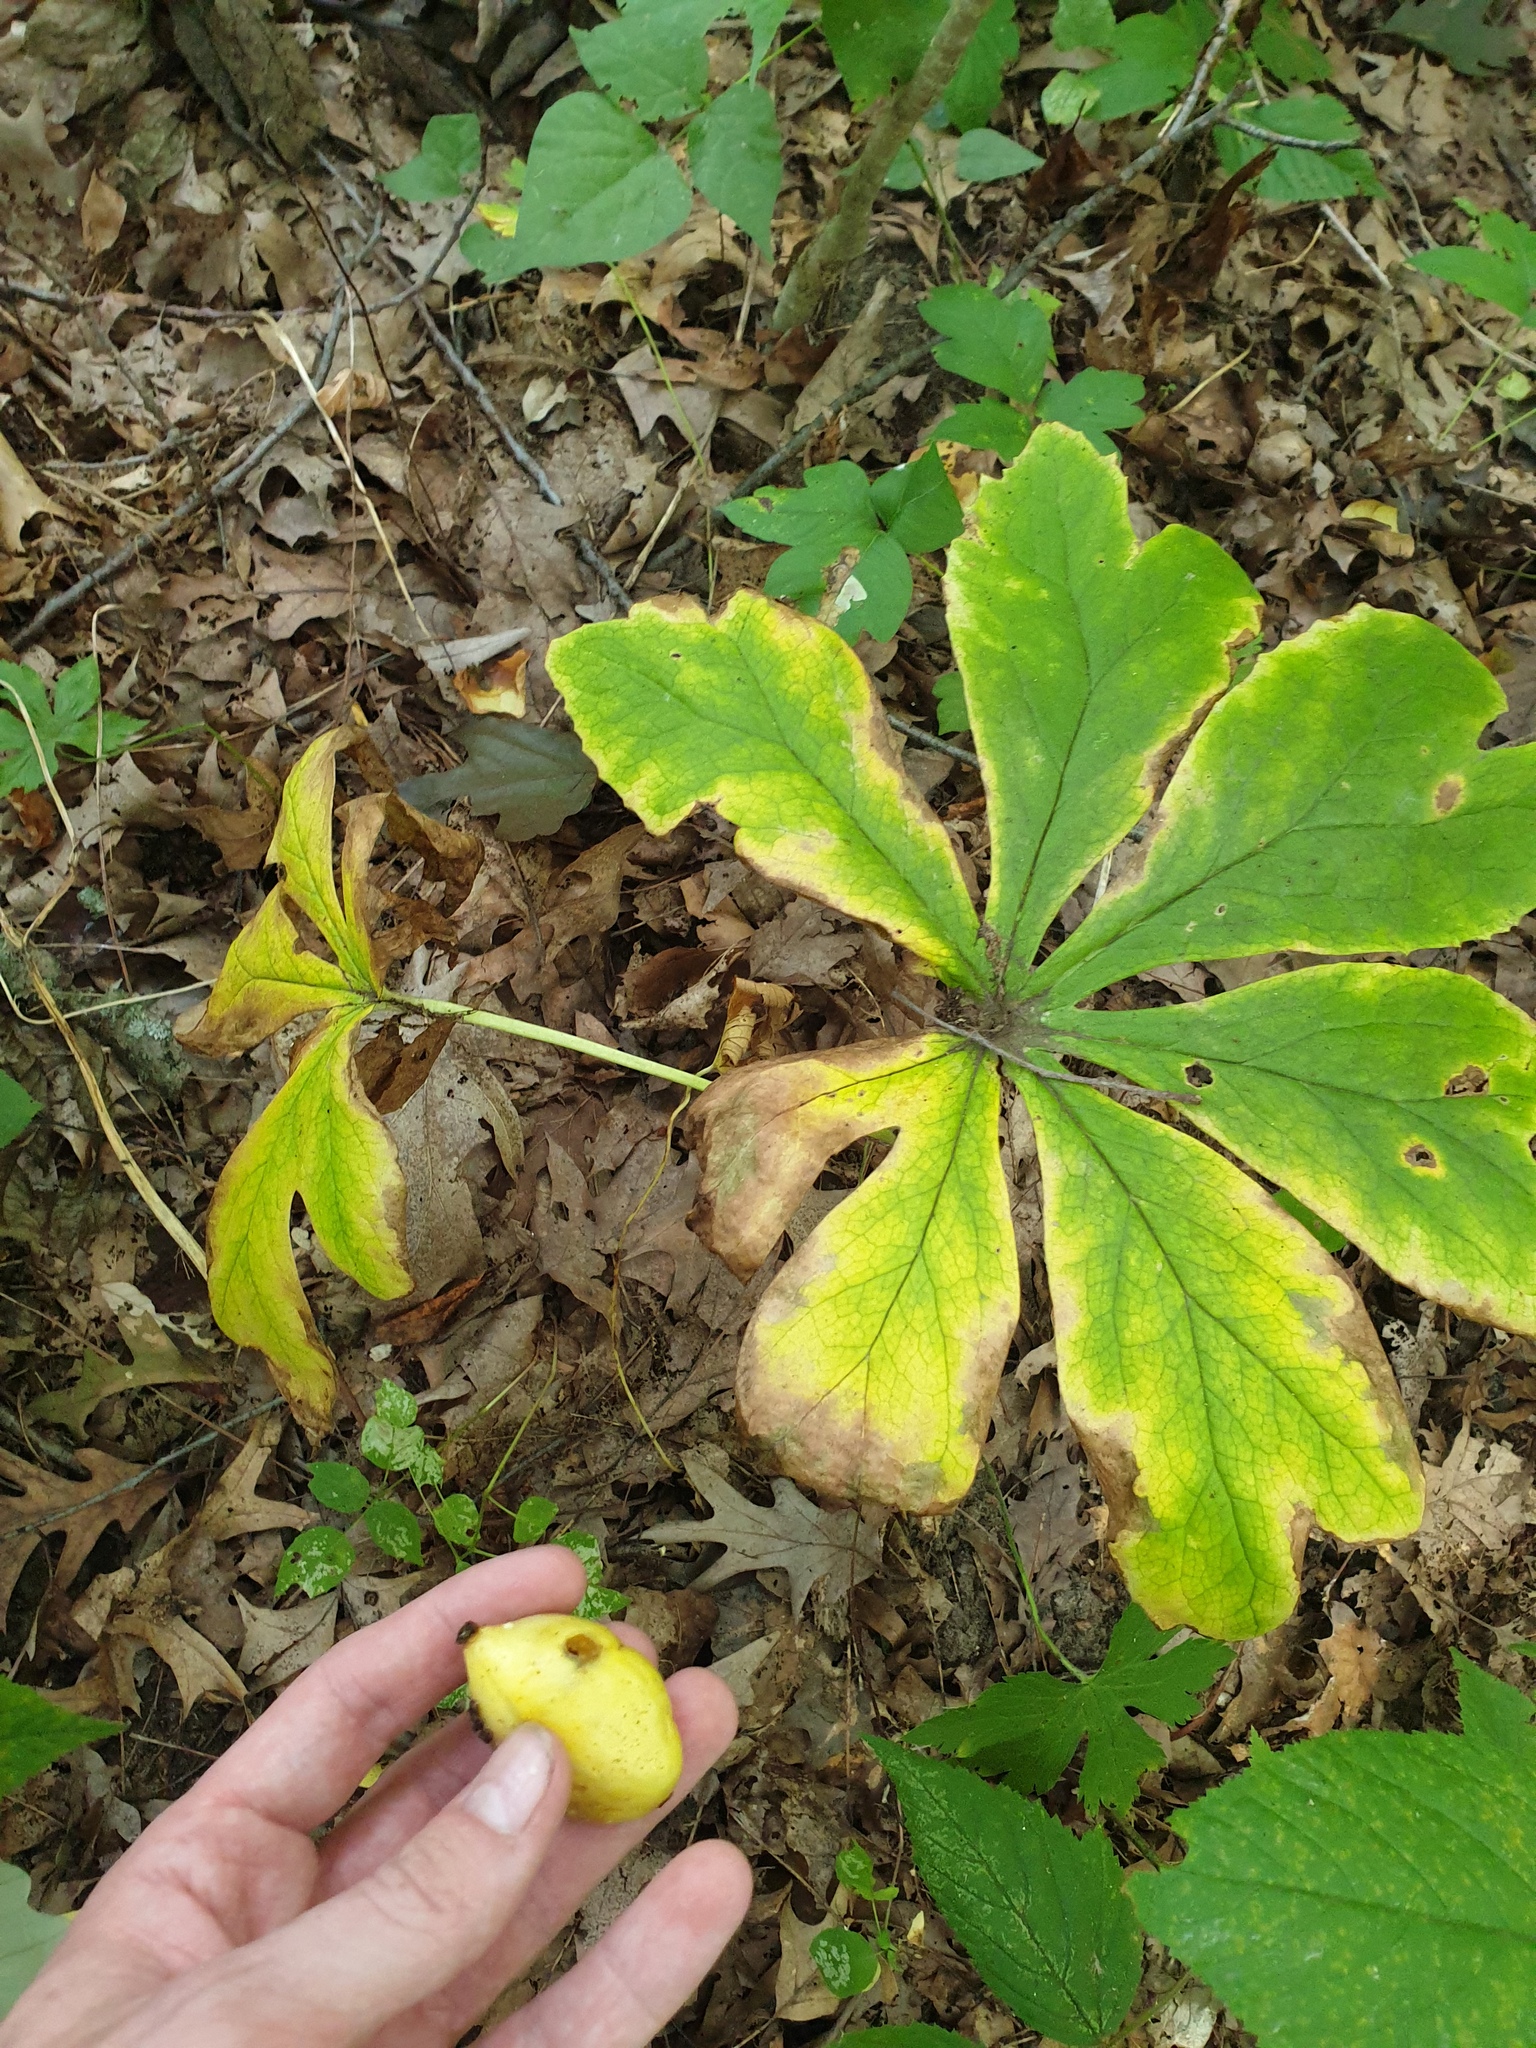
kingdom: Plantae
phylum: Tracheophyta
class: Magnoliopsida
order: Ranunculales
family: Berberidaceae
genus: Podophyllum
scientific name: Podophyllum peltatum
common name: Wild mandrake
